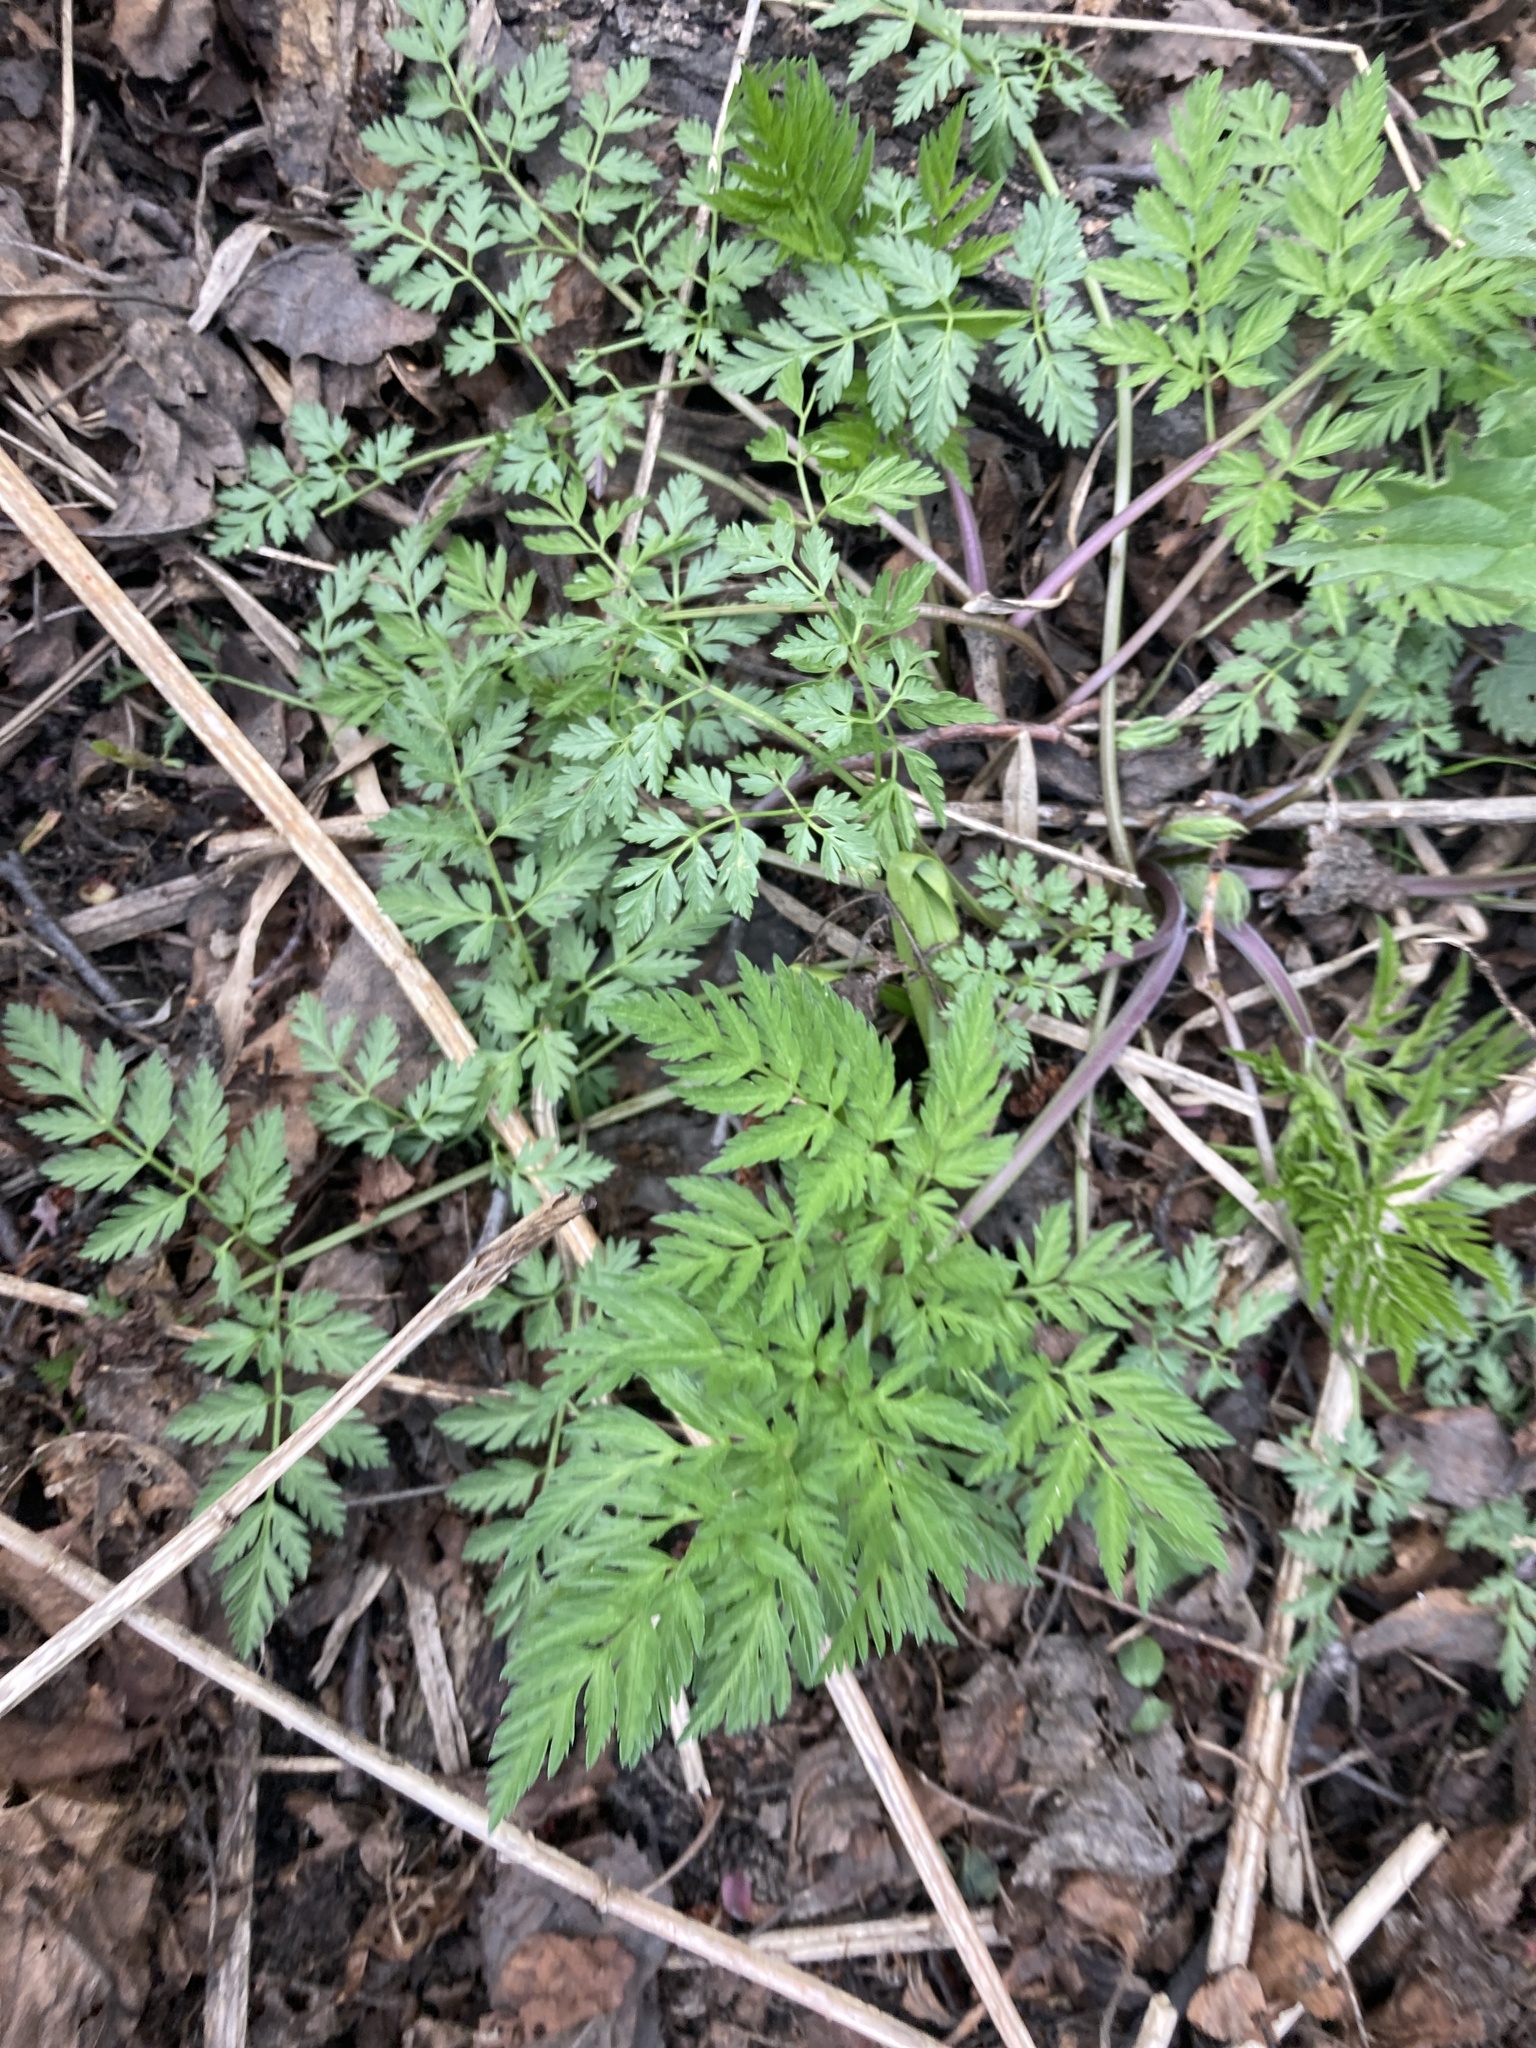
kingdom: Plantae
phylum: Tracheophyta
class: Magnoliopsida
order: Apiales
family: Apiaceae
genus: Anthriscus
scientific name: Anthriscus sylvestris
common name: Cow parsley
